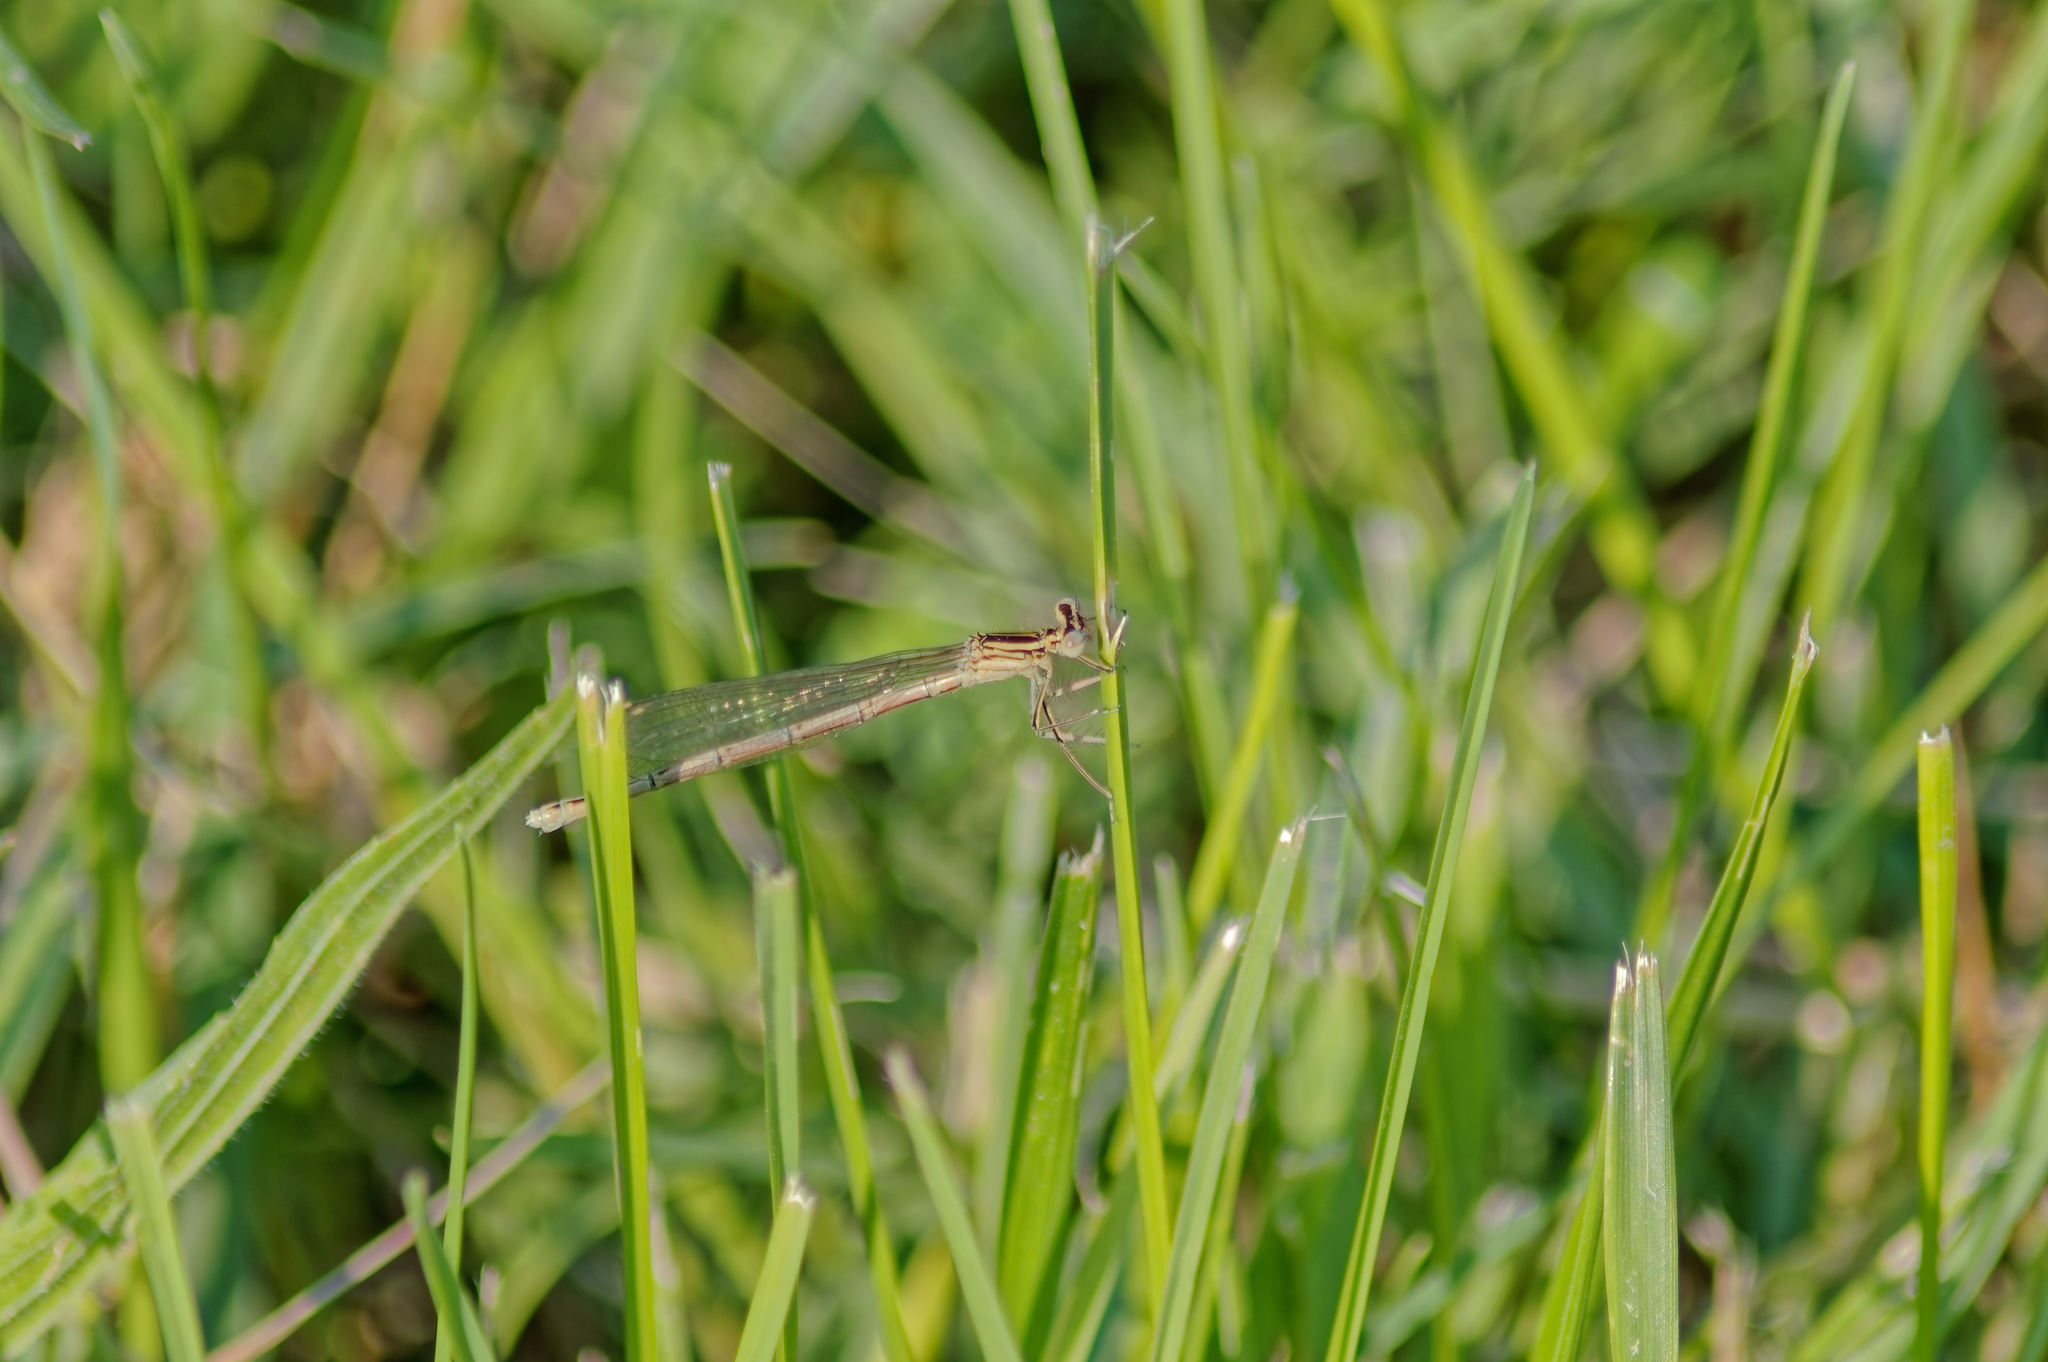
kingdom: Animalia
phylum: Arthropoda
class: Insecta
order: Odonata
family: Platycnemididae
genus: Platycnemis
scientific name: Platycnemis pennipes
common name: White-legged damselfly
